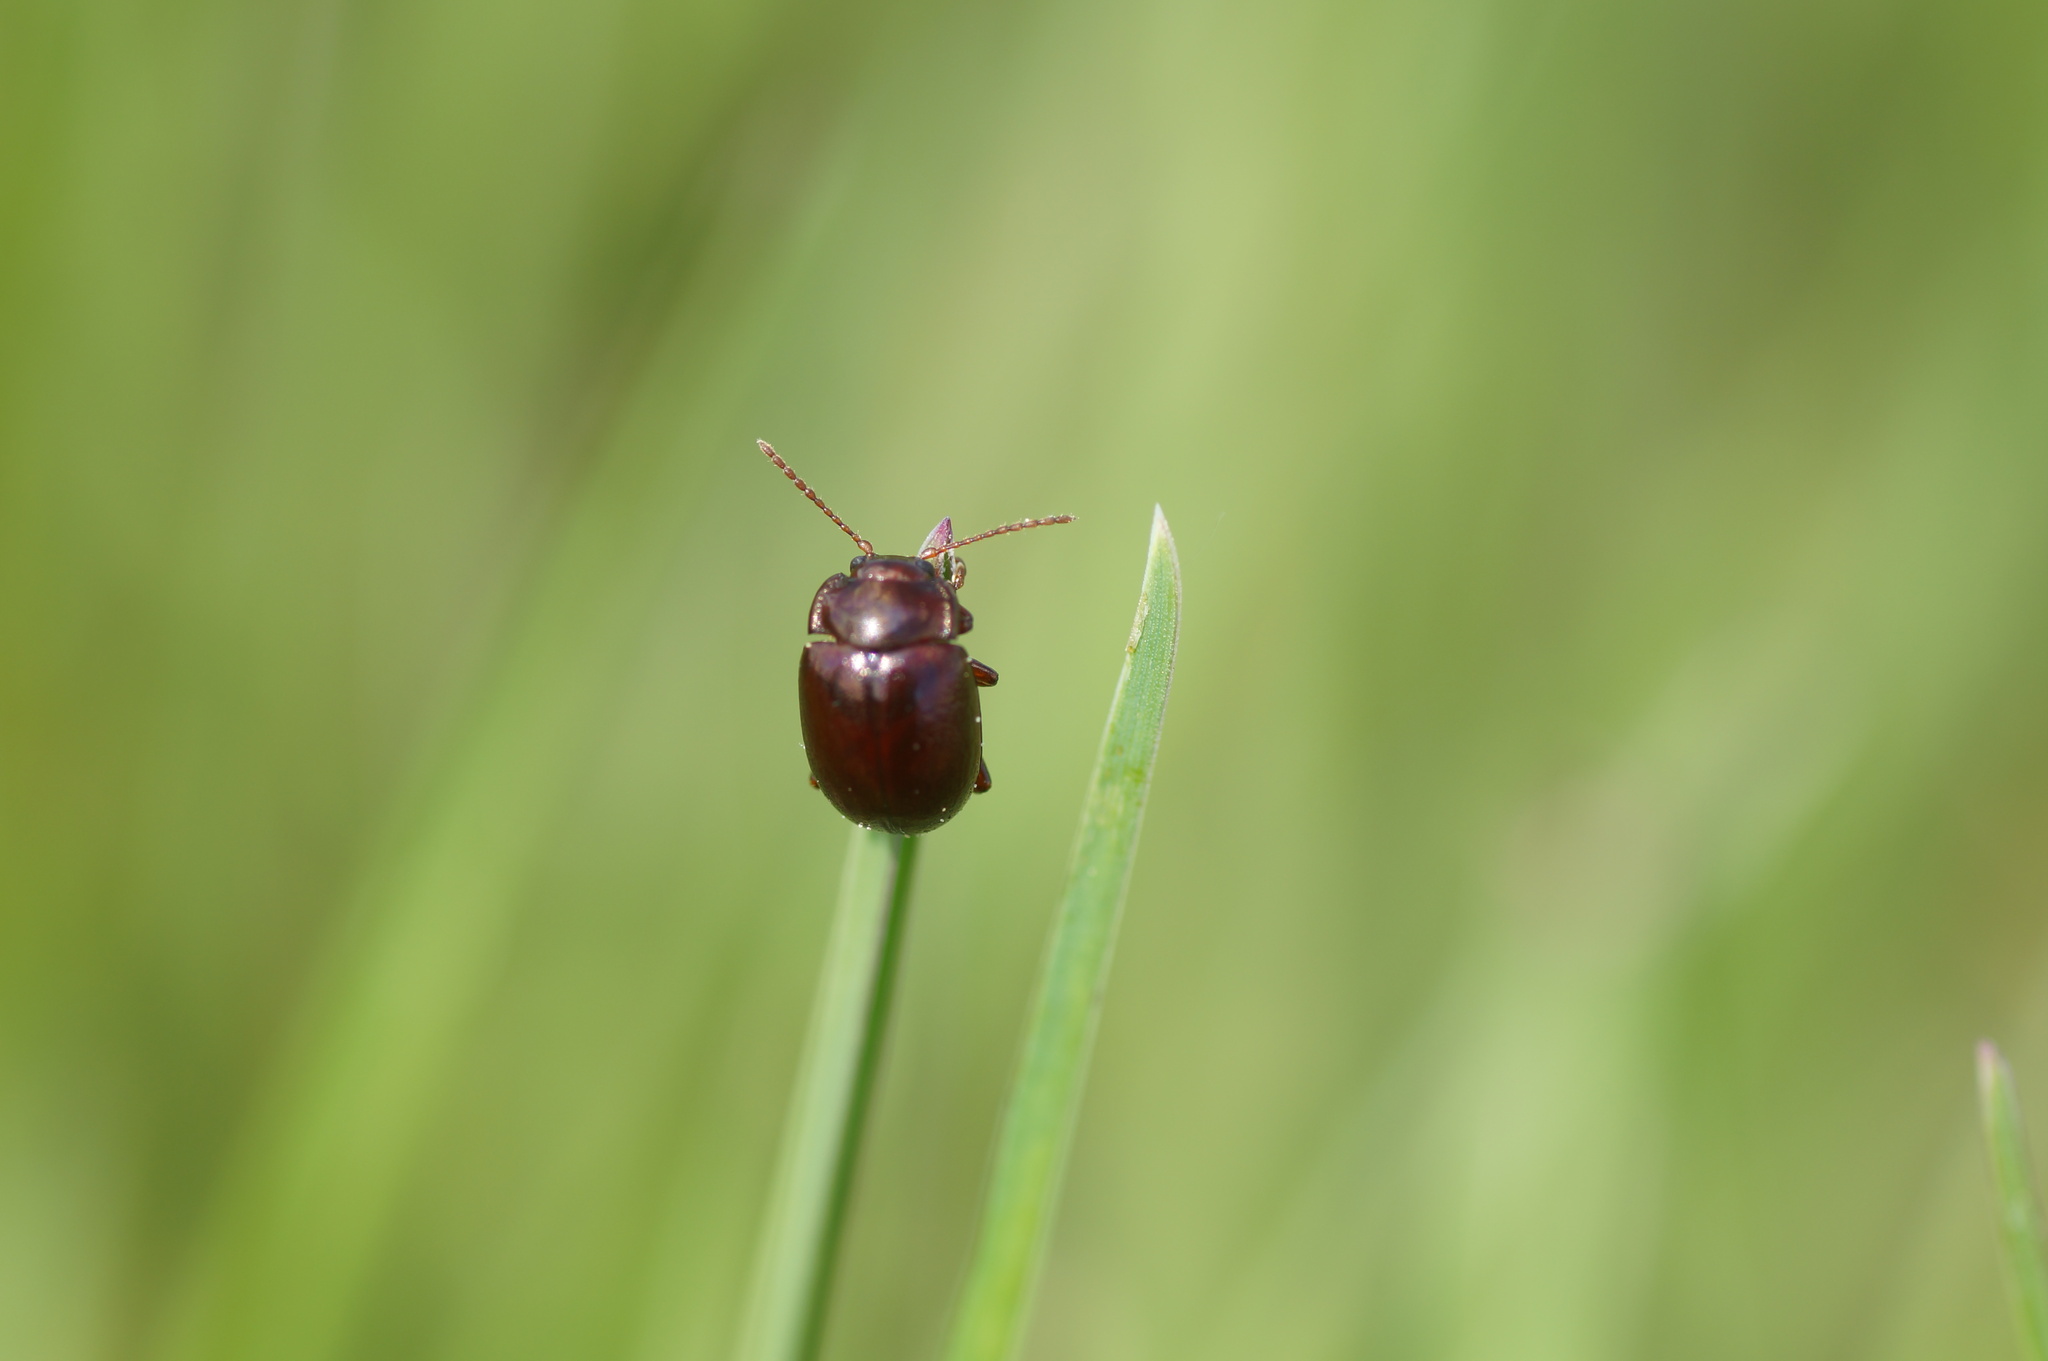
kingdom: Animalia
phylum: Arthropoda
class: Insecta
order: Coleoptera
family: Chrysomelidae
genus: Chrysolina
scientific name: Chrysolina staphylaea
